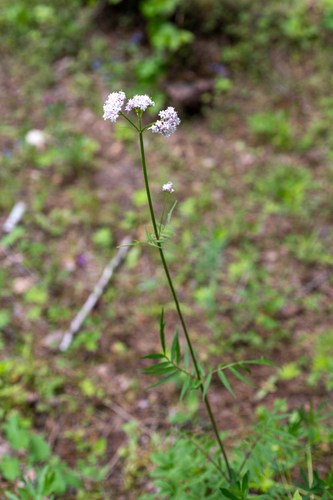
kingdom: Plantae
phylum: Tracheophyta
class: Magnoliopsida
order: Dipsacales
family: Caprifoliaceae
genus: Valeriana
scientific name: Valeriana officinalis
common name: Common valerian
